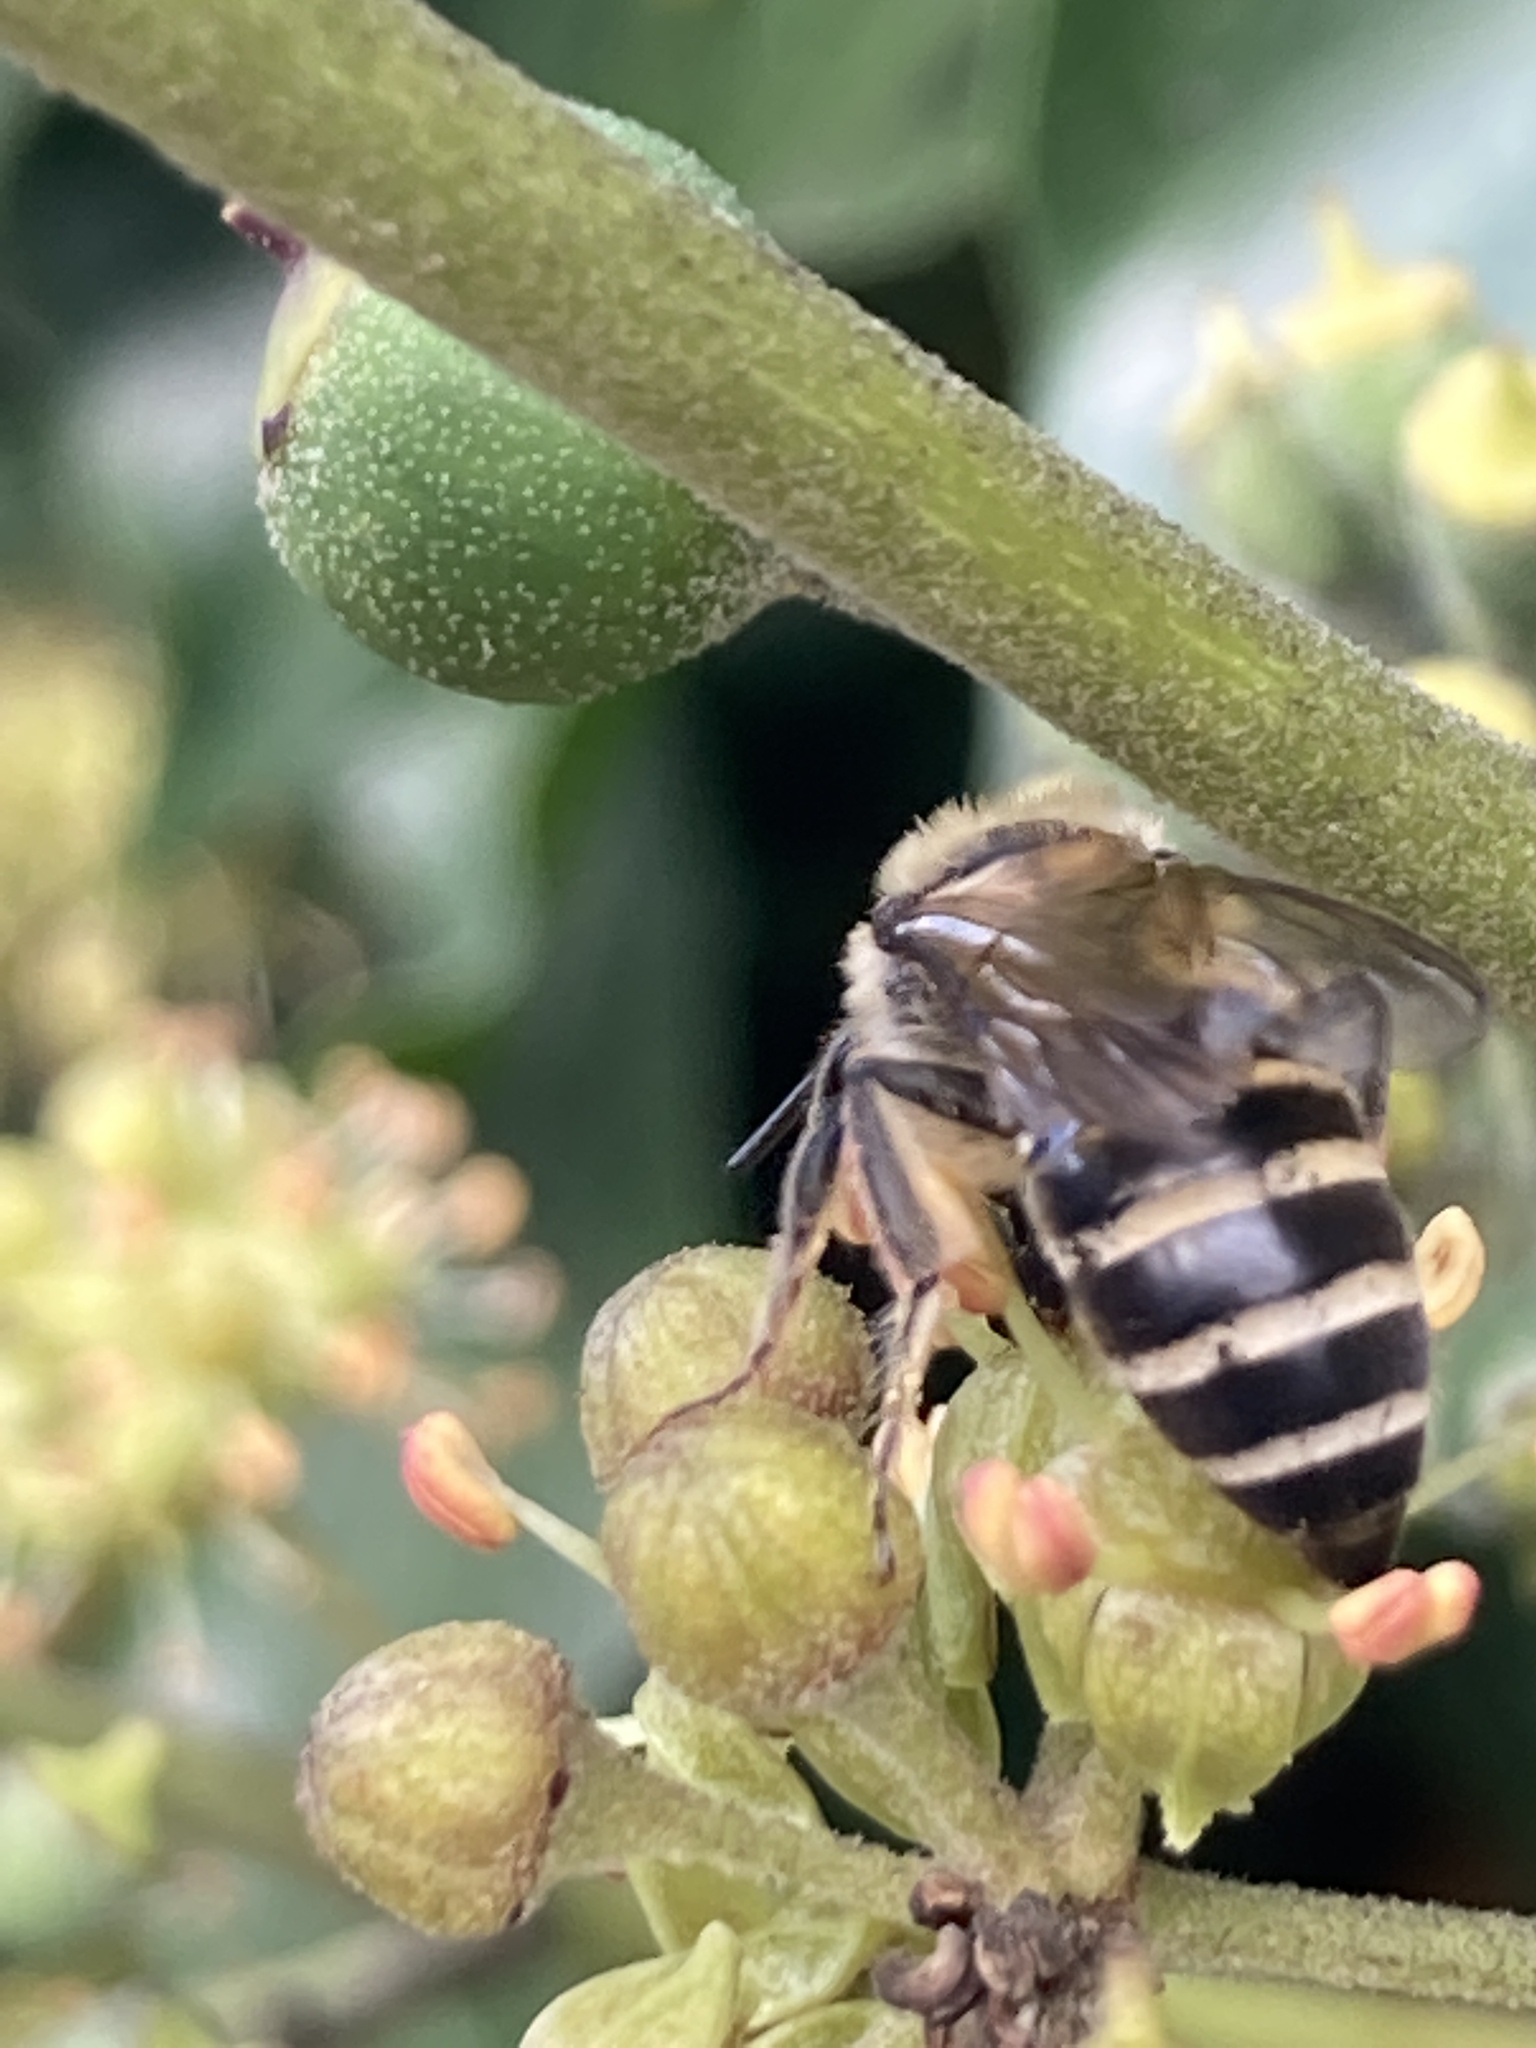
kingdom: Animalia
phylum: Arthropoda
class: Insecta
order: Hymenoptera
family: Colletidae
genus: Colletes
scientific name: Colletes hederae
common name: Ivy bee
